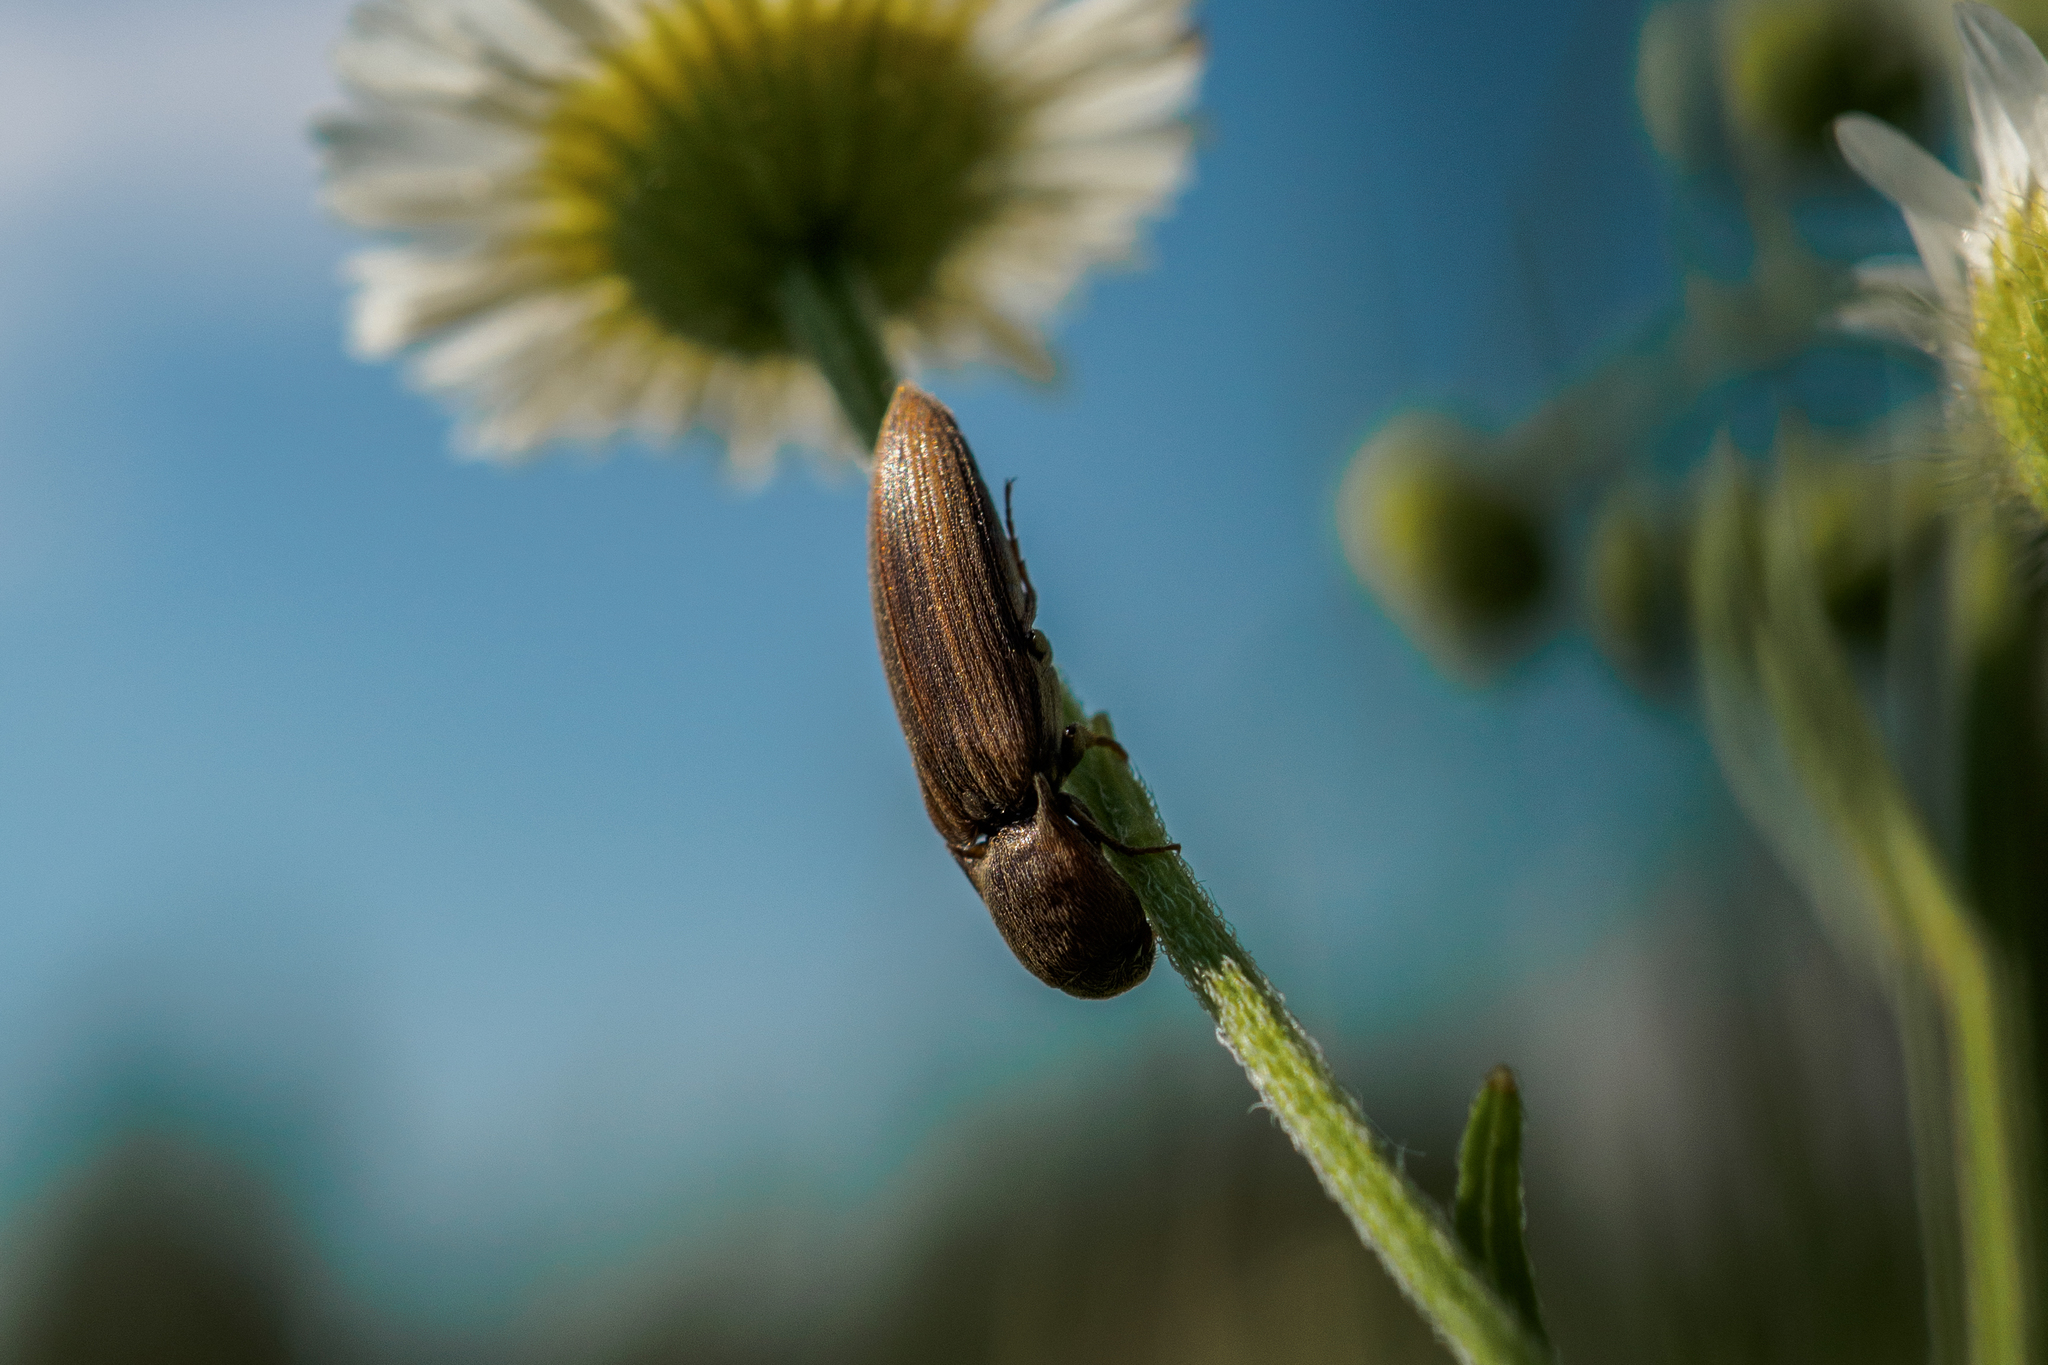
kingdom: Animalia
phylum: Arthropoda
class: Insecta
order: Coleoptera
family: Elateridae
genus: Agriotes
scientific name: Agriotes lineatus
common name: Lined click beetle
